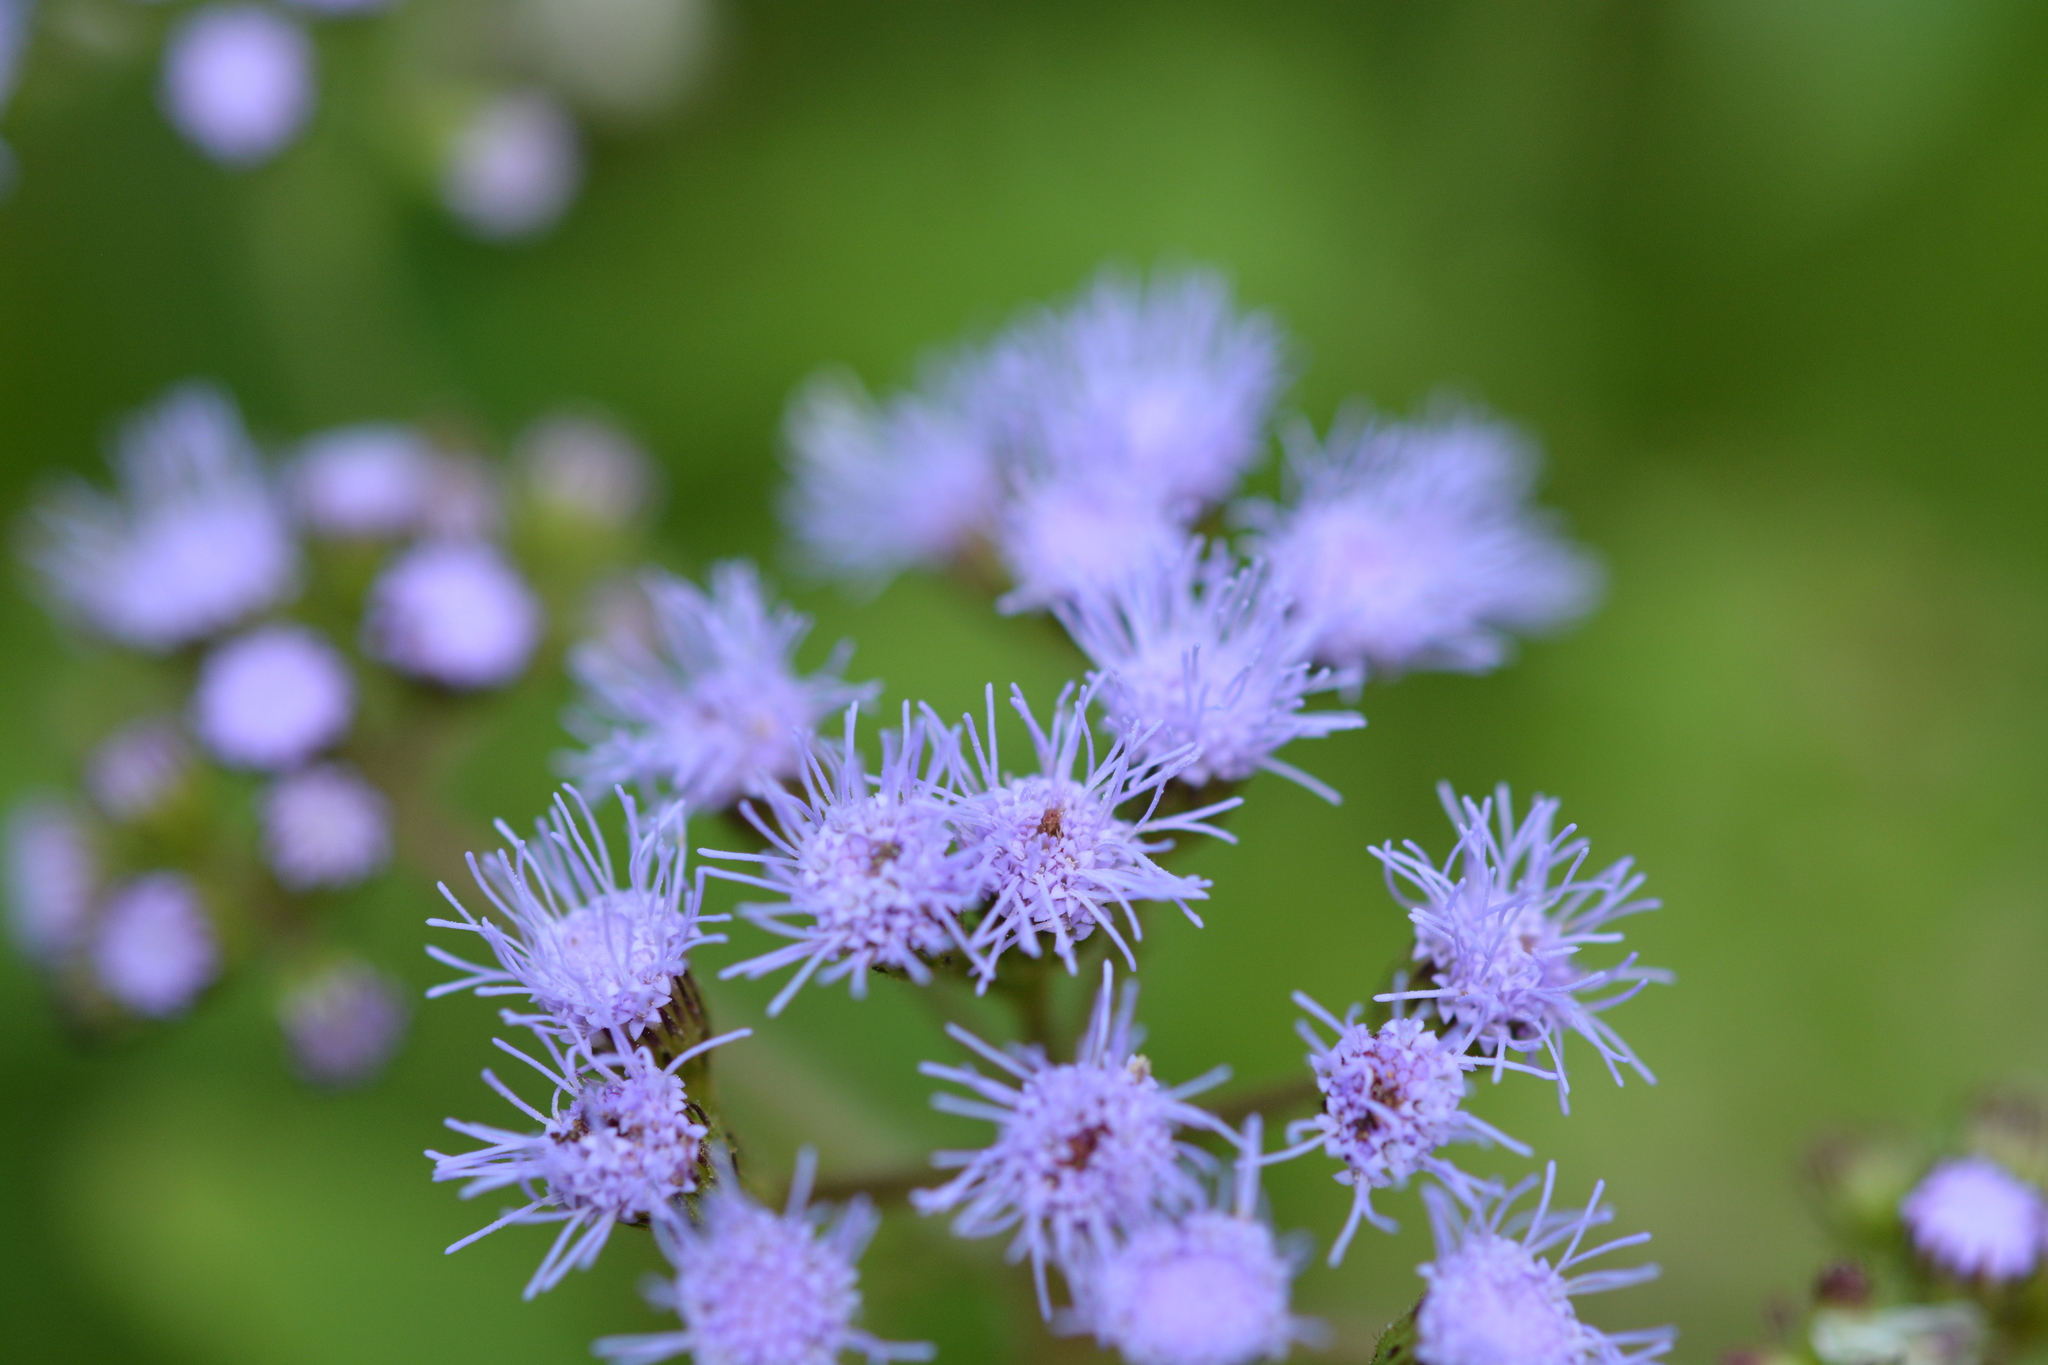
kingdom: Plantae
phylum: Tracheophyta
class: Magnoliopsida
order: Asterales
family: Asteraceae
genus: Conoclinium
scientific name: Conoclinium coelestinum
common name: Blue mistflower
